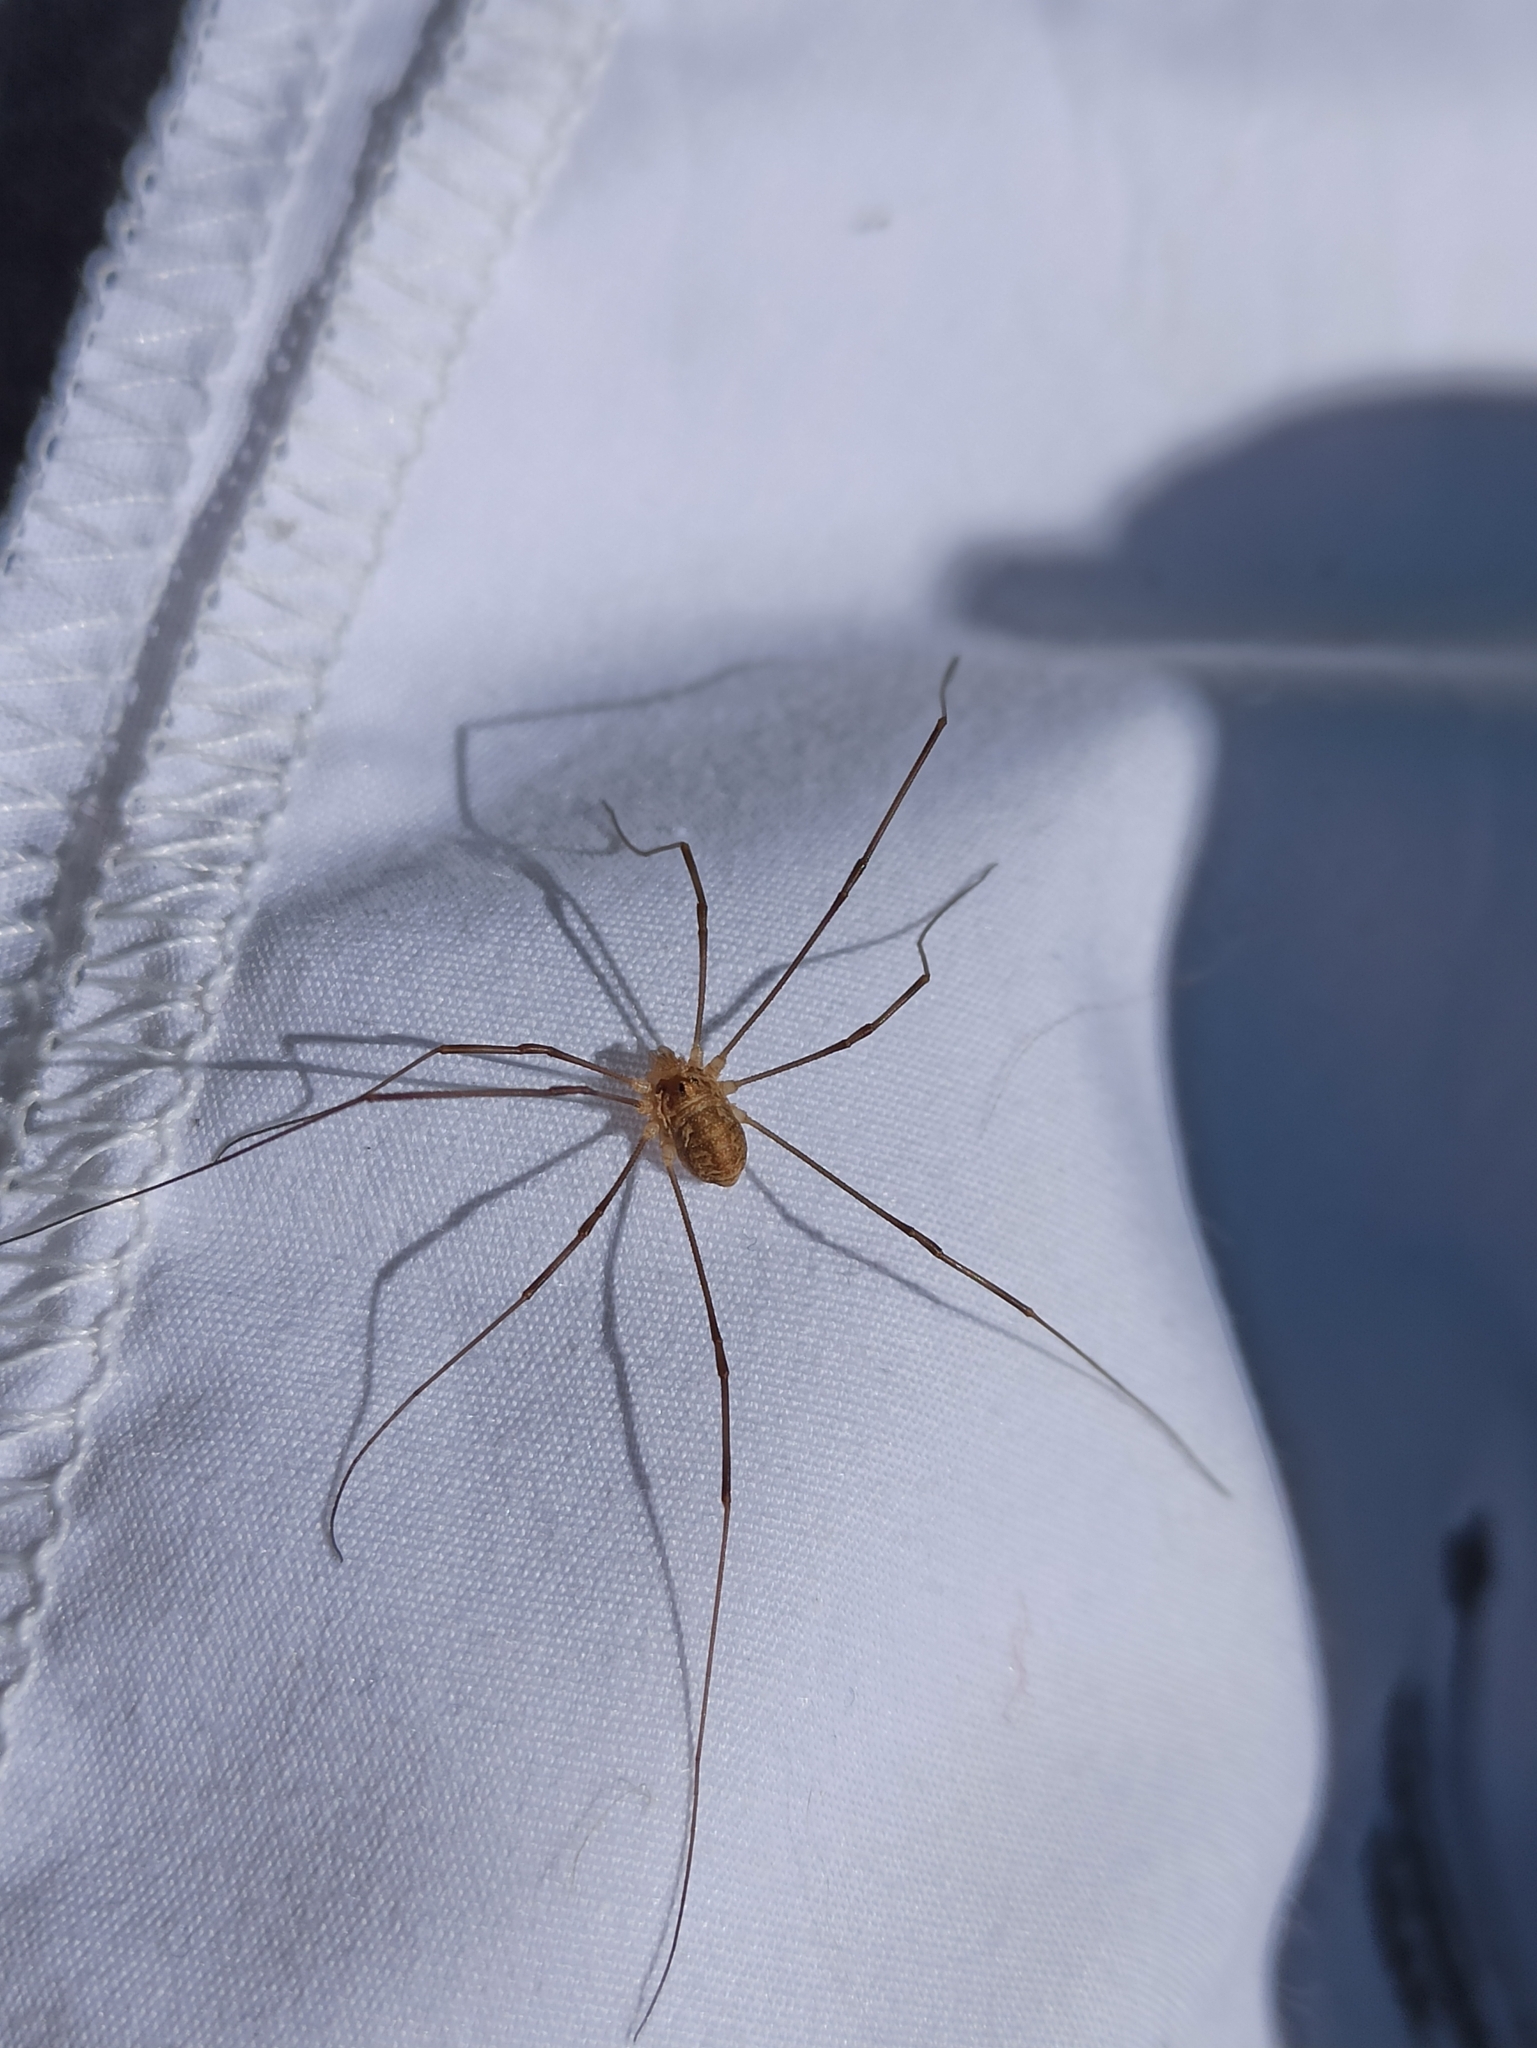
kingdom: Animalia
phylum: Arthropoda
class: Arachnida
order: Opiliones
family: Phalangiidae
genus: Rilaena
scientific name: Rilaena triangularis
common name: Spring harvestman
